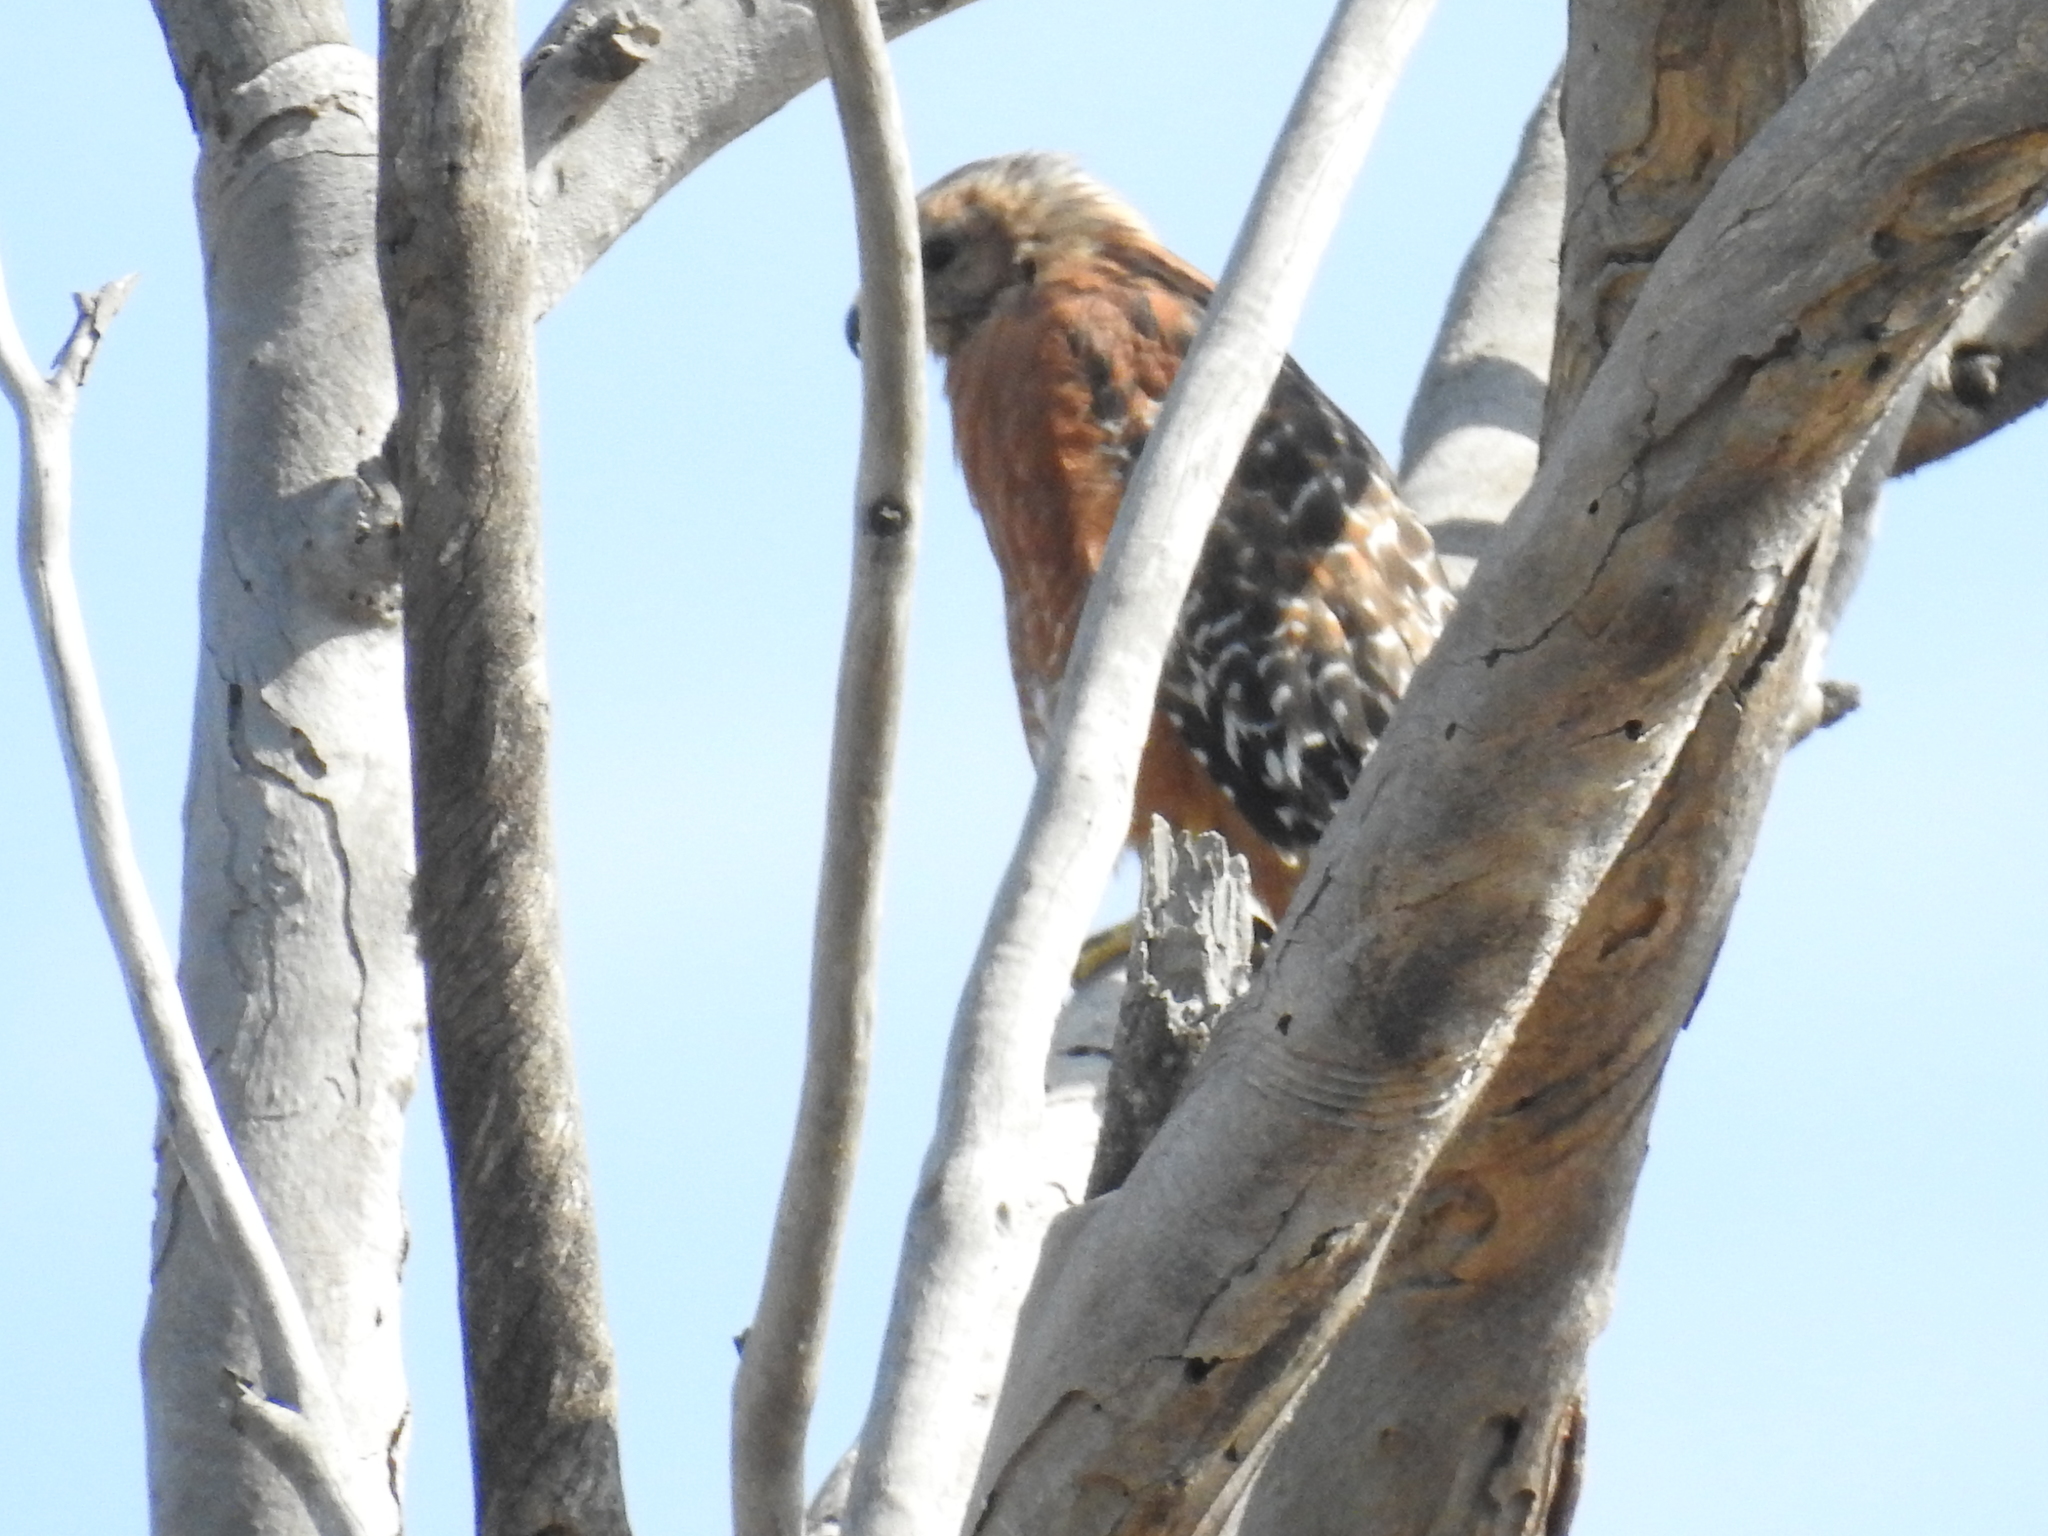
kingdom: Animalia
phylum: Chordata
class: Aves
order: Accipitriformes
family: Accipitridae
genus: Buteo
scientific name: Buteo lineatus
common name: Red-shouldered hawk
